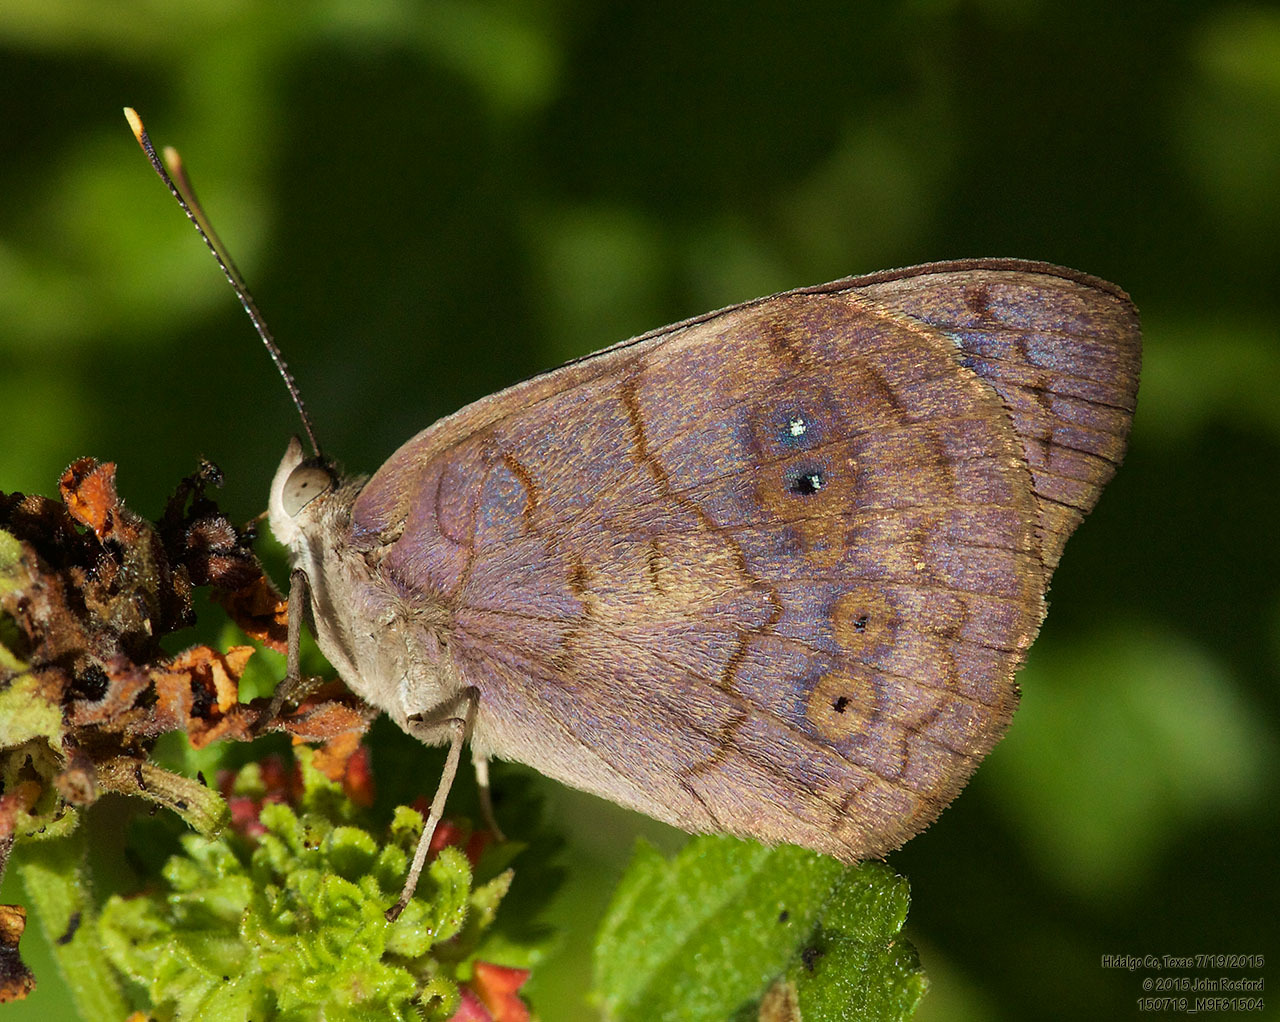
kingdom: Animalia
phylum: Arthropoda
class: Insecta
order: Lepidoptera
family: Nymphalidae
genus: Eunica
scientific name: Eunica monima
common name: Dingy purplewing
